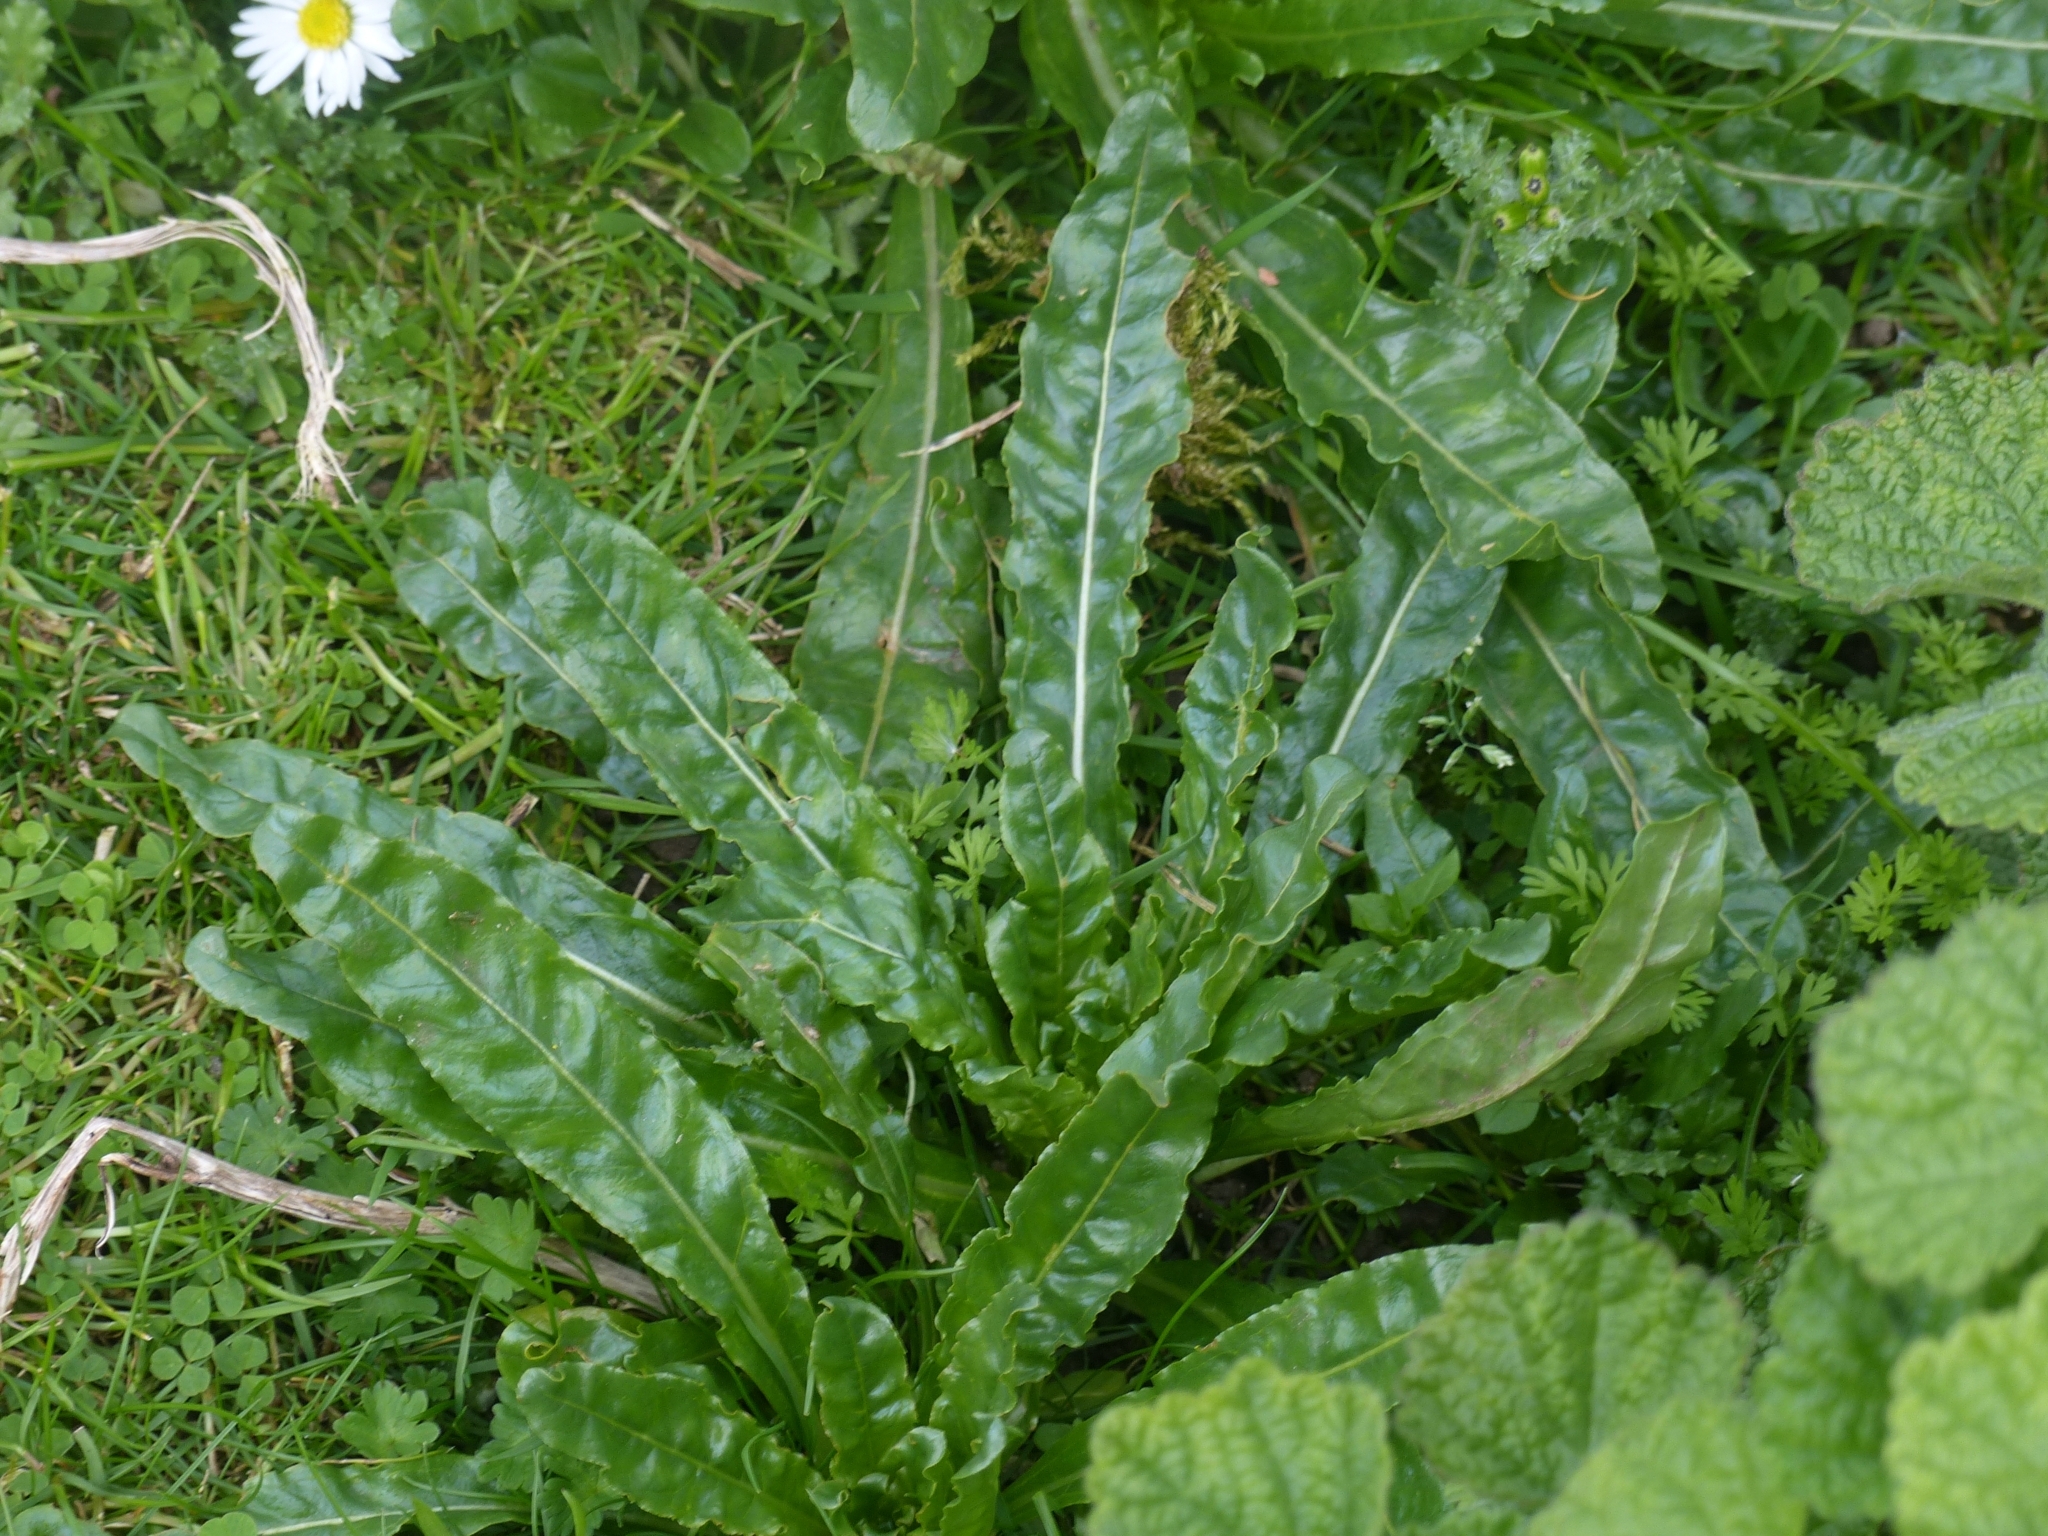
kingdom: Plantae
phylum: Tracheophyta
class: Magnoliopsida
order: Brassicales
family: Resedaceae
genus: Reseda
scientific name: Reseda luteola
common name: Weld
